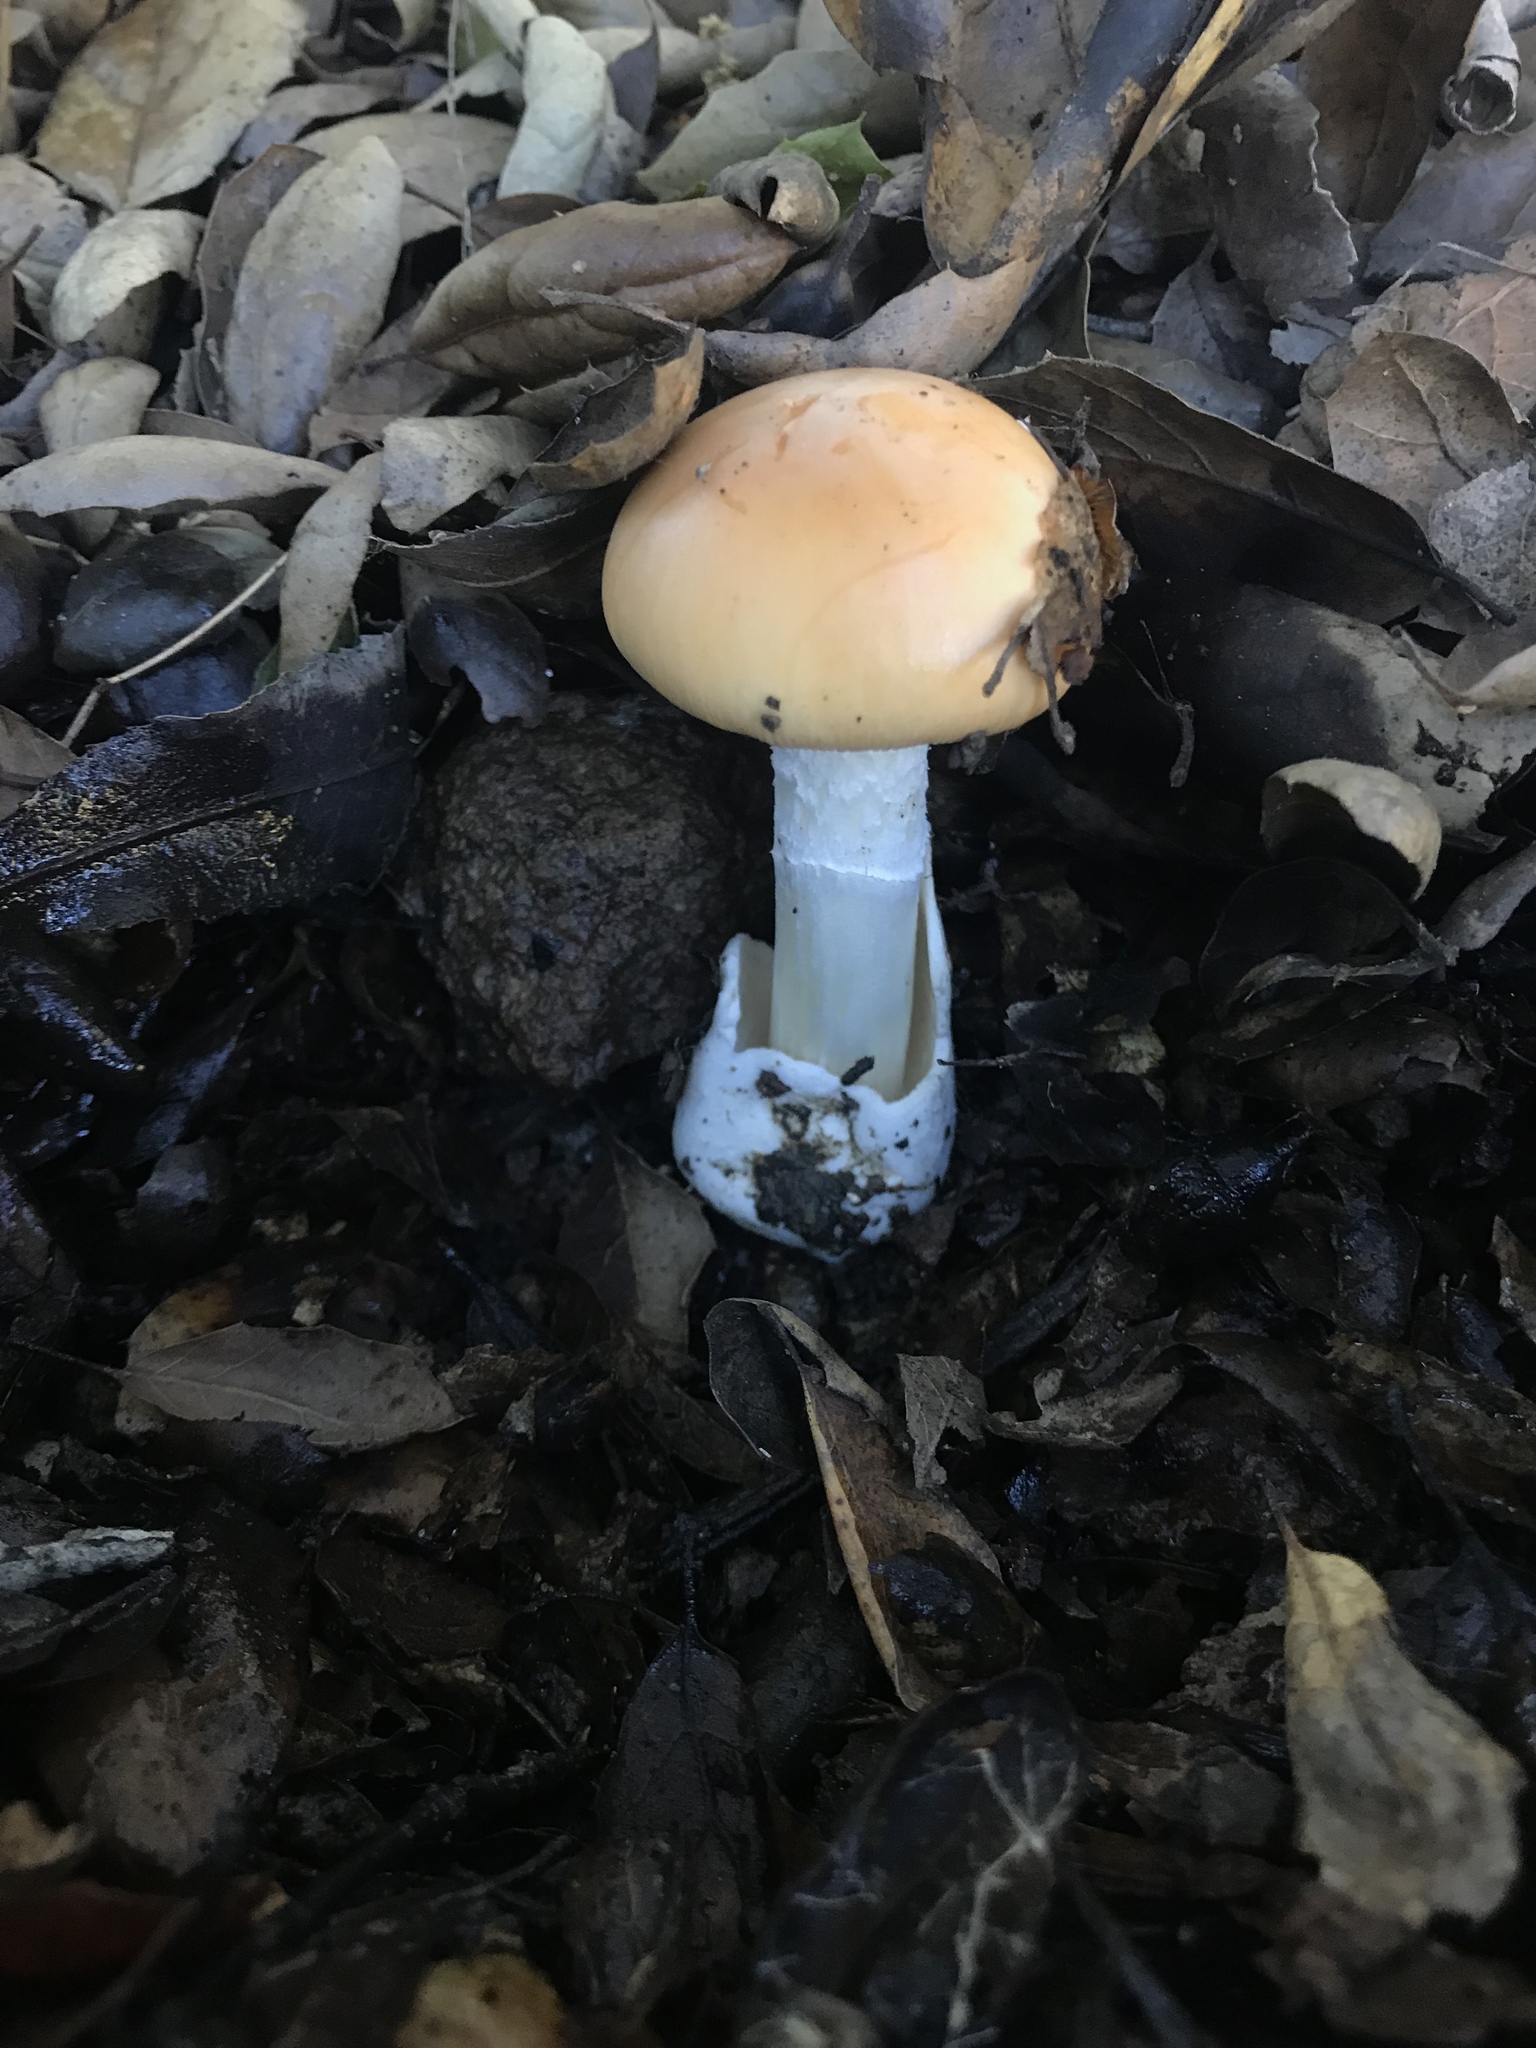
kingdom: Fungi
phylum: Basidiomycota
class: Agaricomycetes
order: Agaricales
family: Amanitaceae
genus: Amanita
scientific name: Amanita velosa
